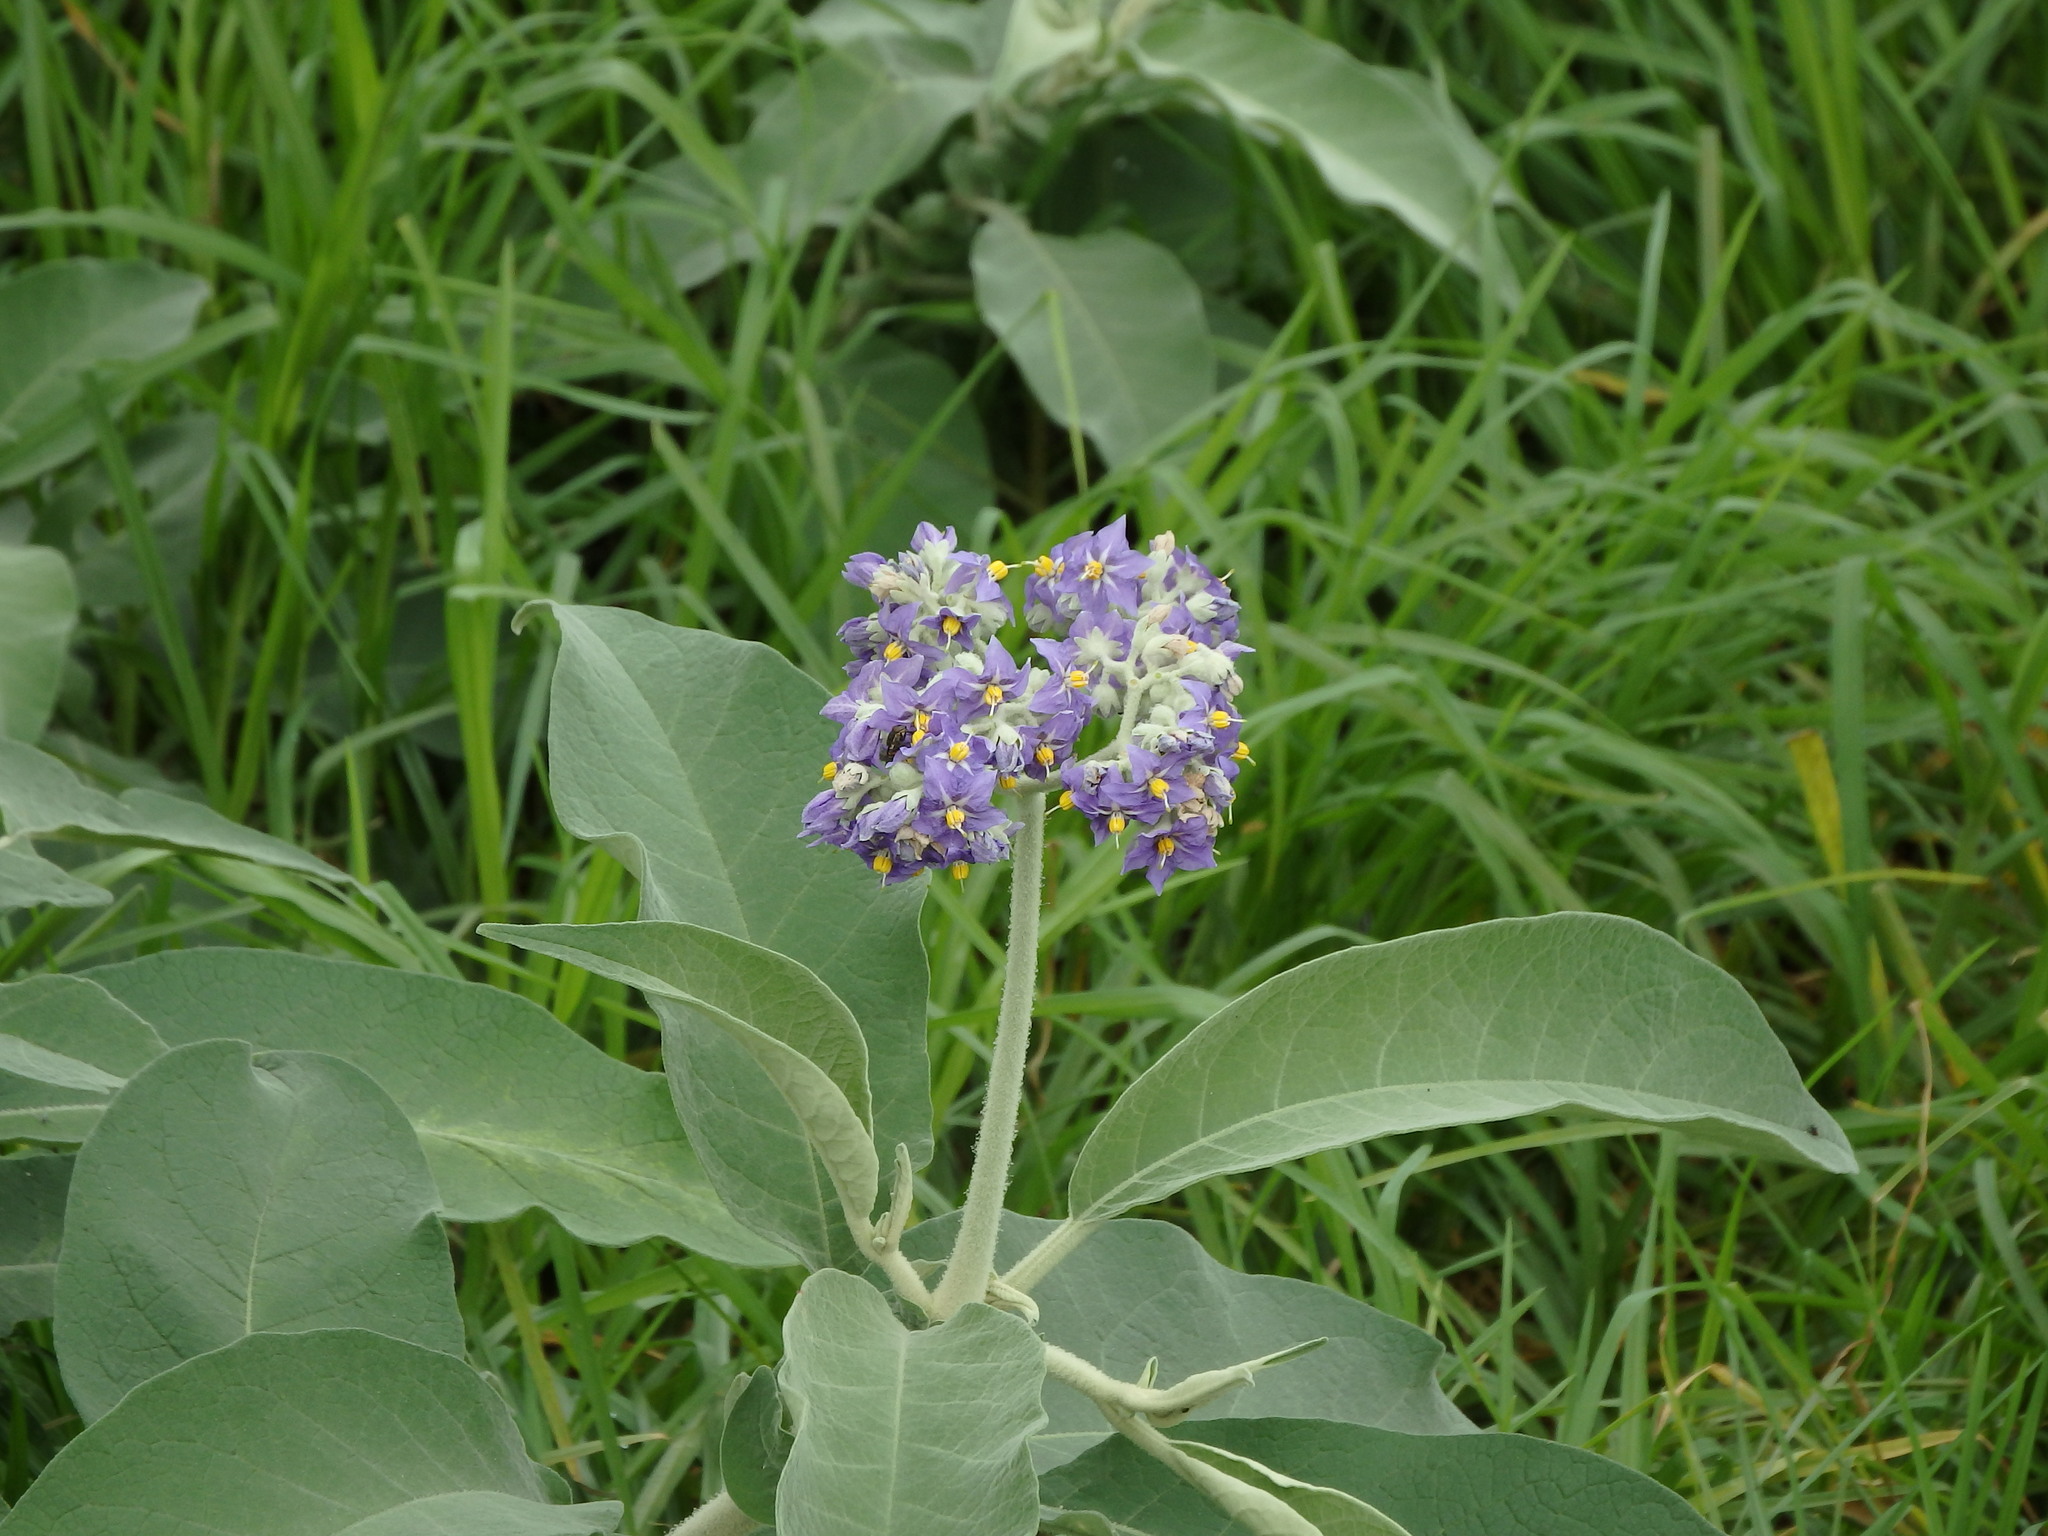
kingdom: Plantae
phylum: Tracheophyta
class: Magnoliopsida
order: Solanales
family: Solanaceae
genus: Solanum
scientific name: Solanum mauritianum
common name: Earleaf nightshade
